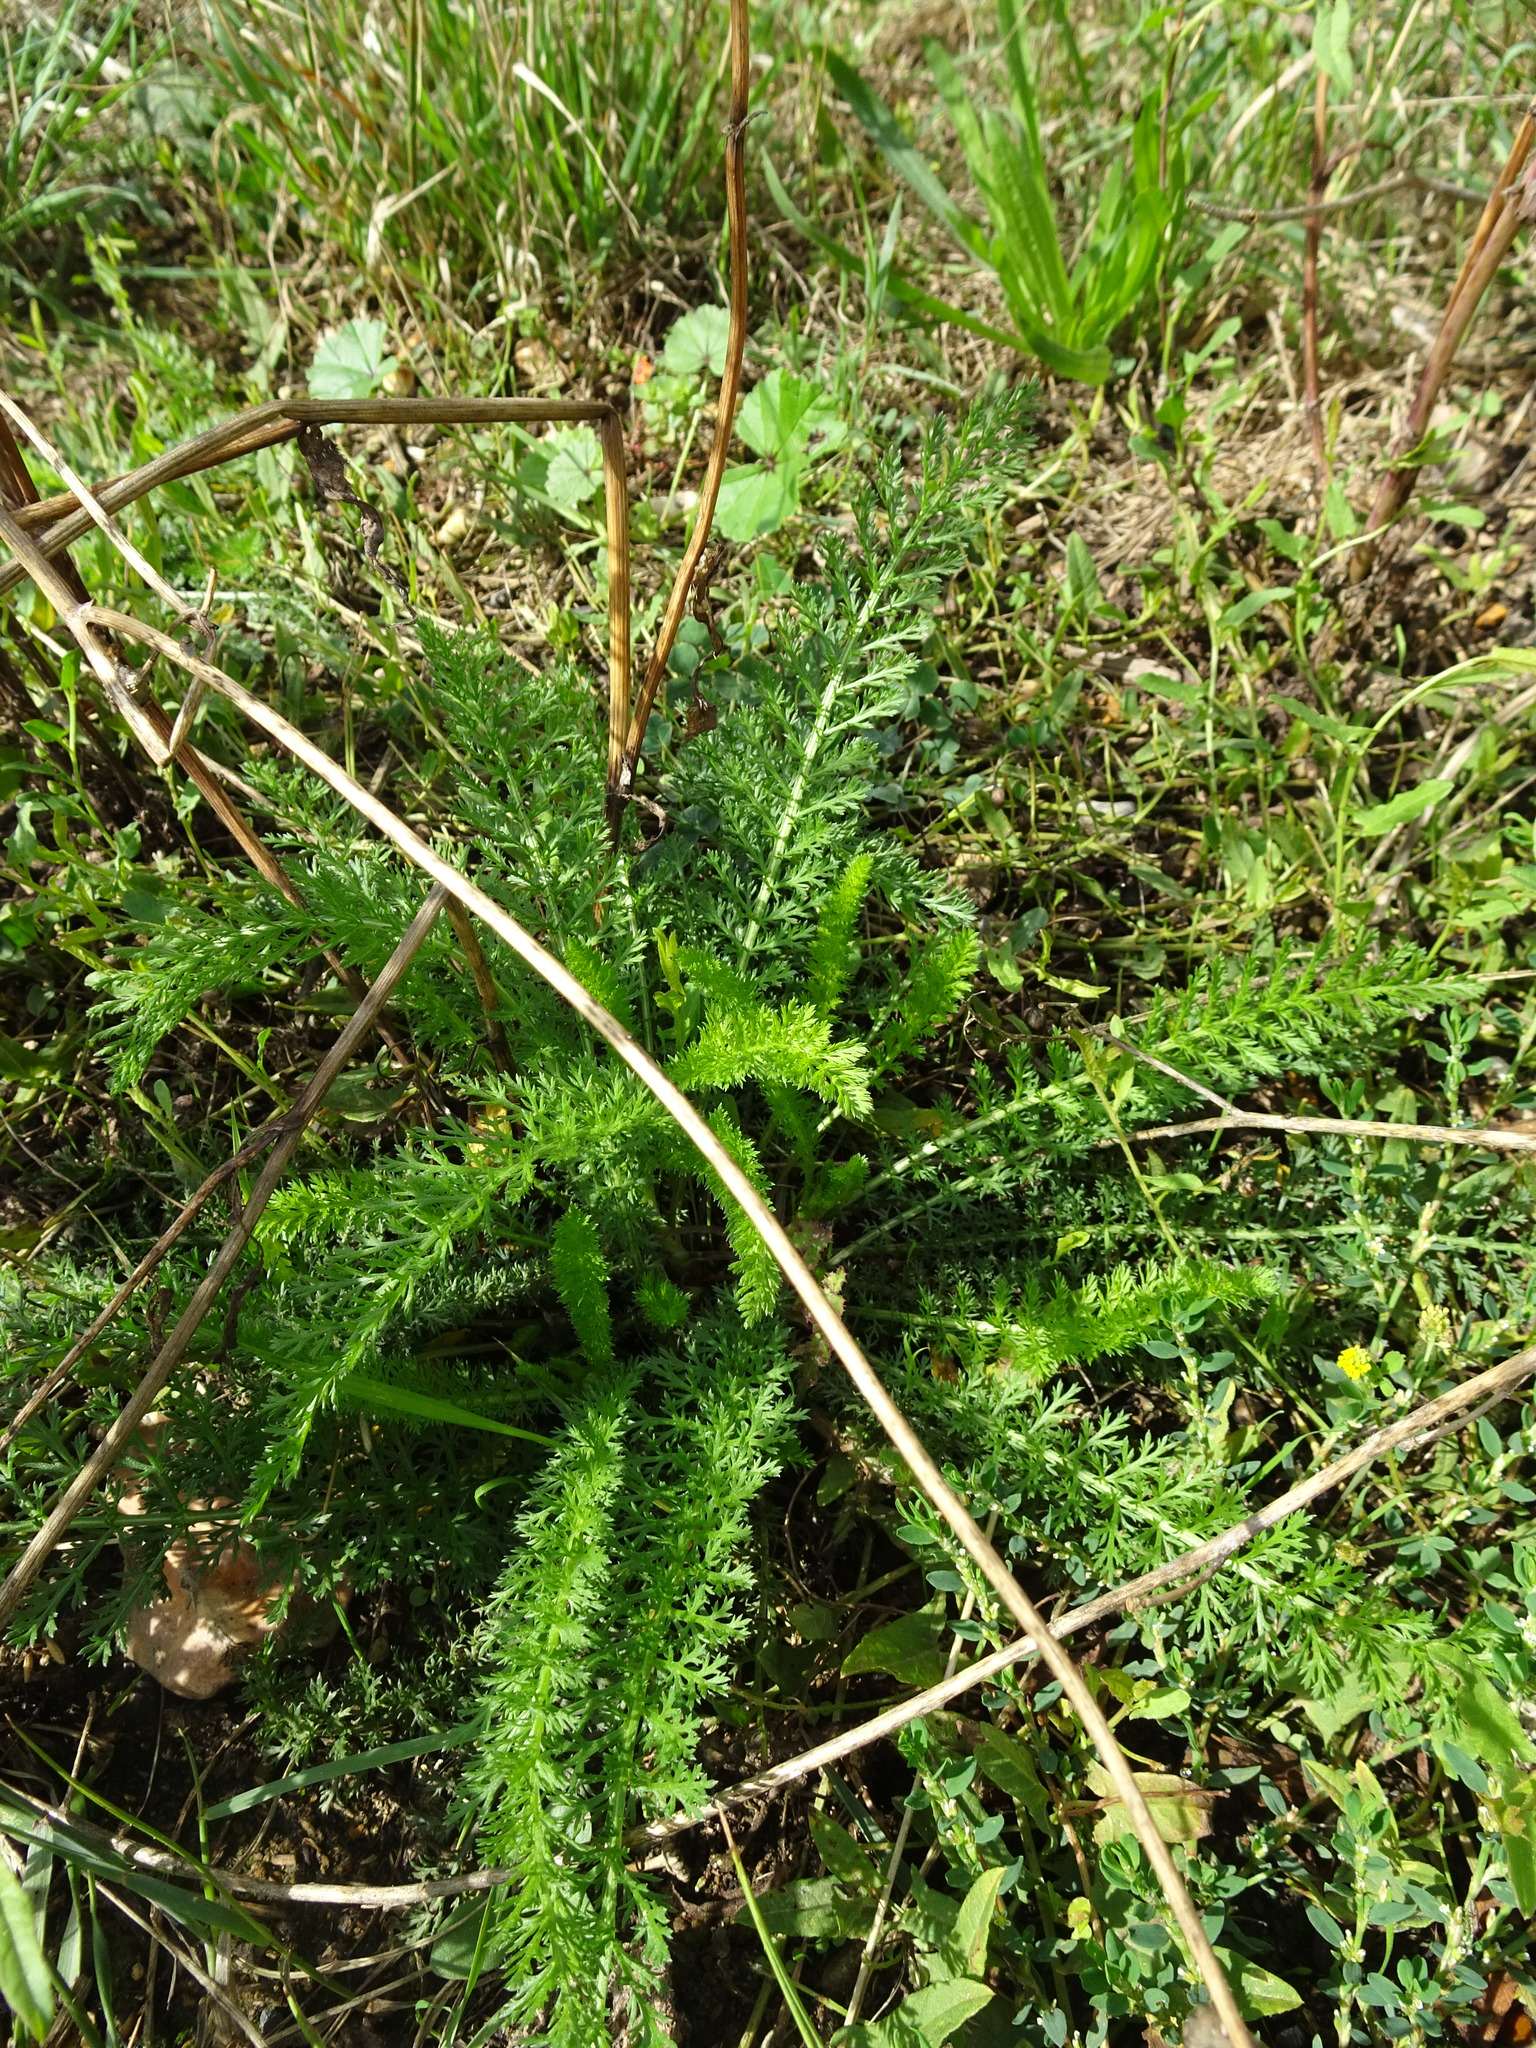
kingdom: Plantae
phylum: Tracheophyta
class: Magnoliopsida
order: Asterales
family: Asteraceae
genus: Achillea
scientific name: Achillea millefolium
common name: Yarrow
